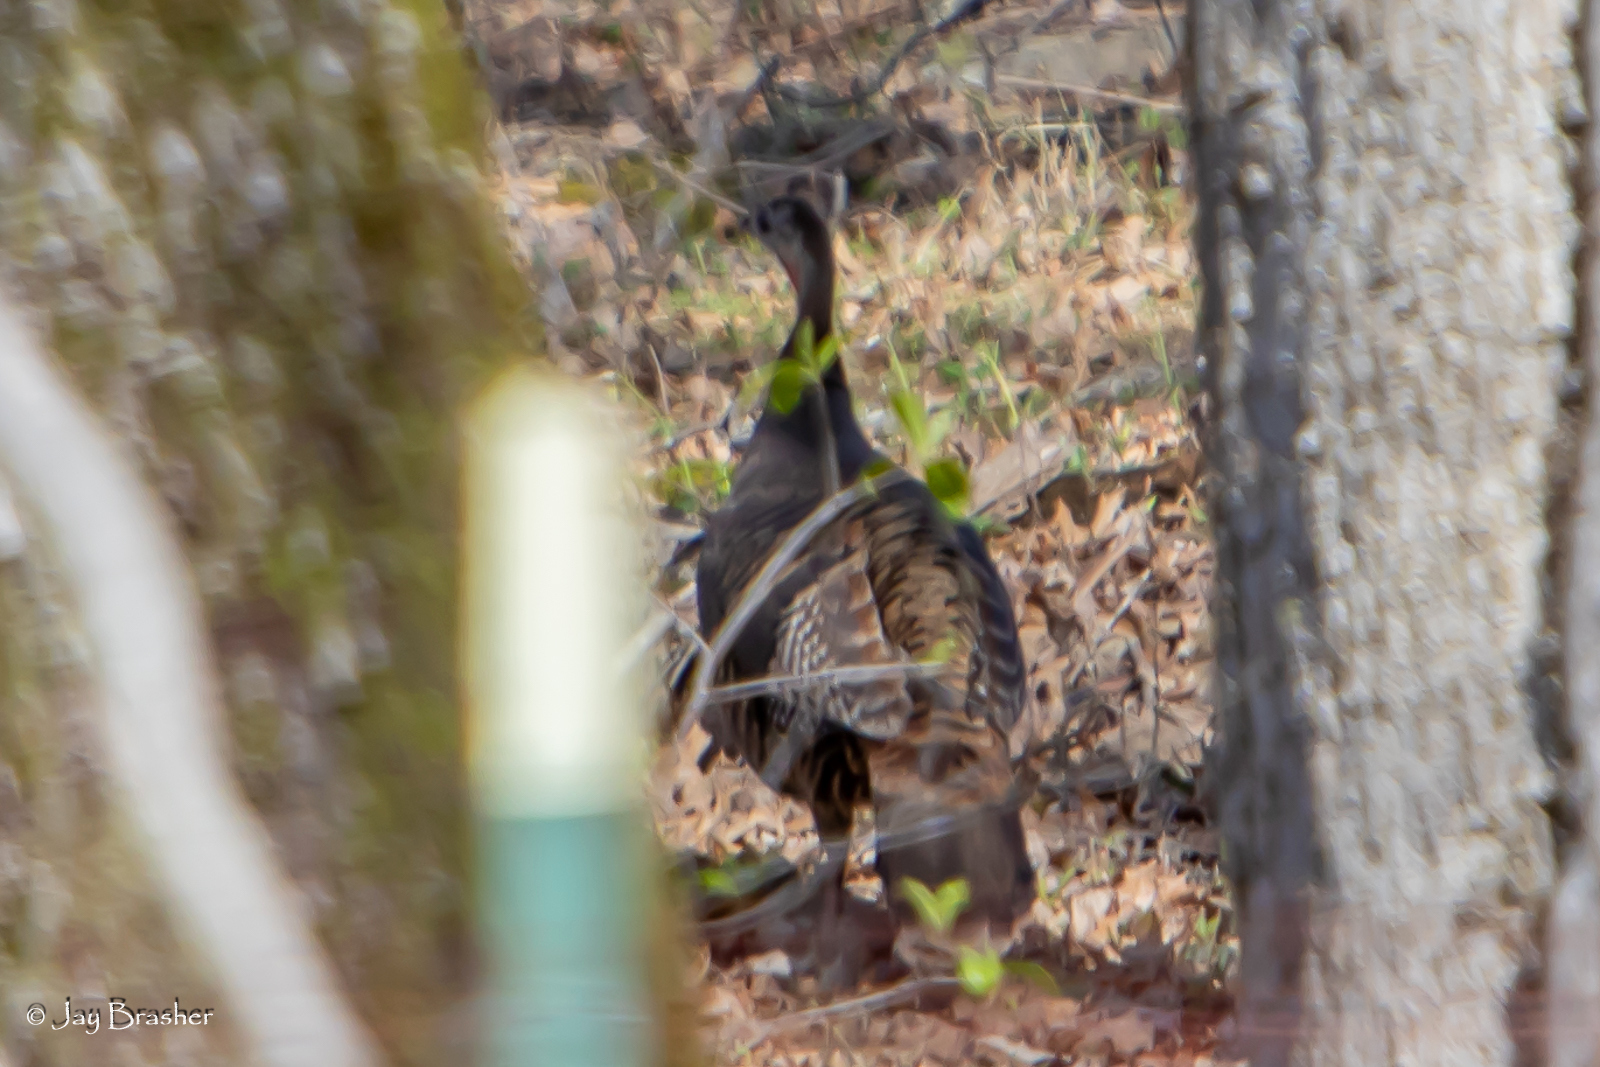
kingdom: Animalia
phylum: Chordata
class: Aves
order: Galliformes
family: Phasianidae
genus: Meleagris
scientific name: Meleagris gallopavo
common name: Wild turkey
